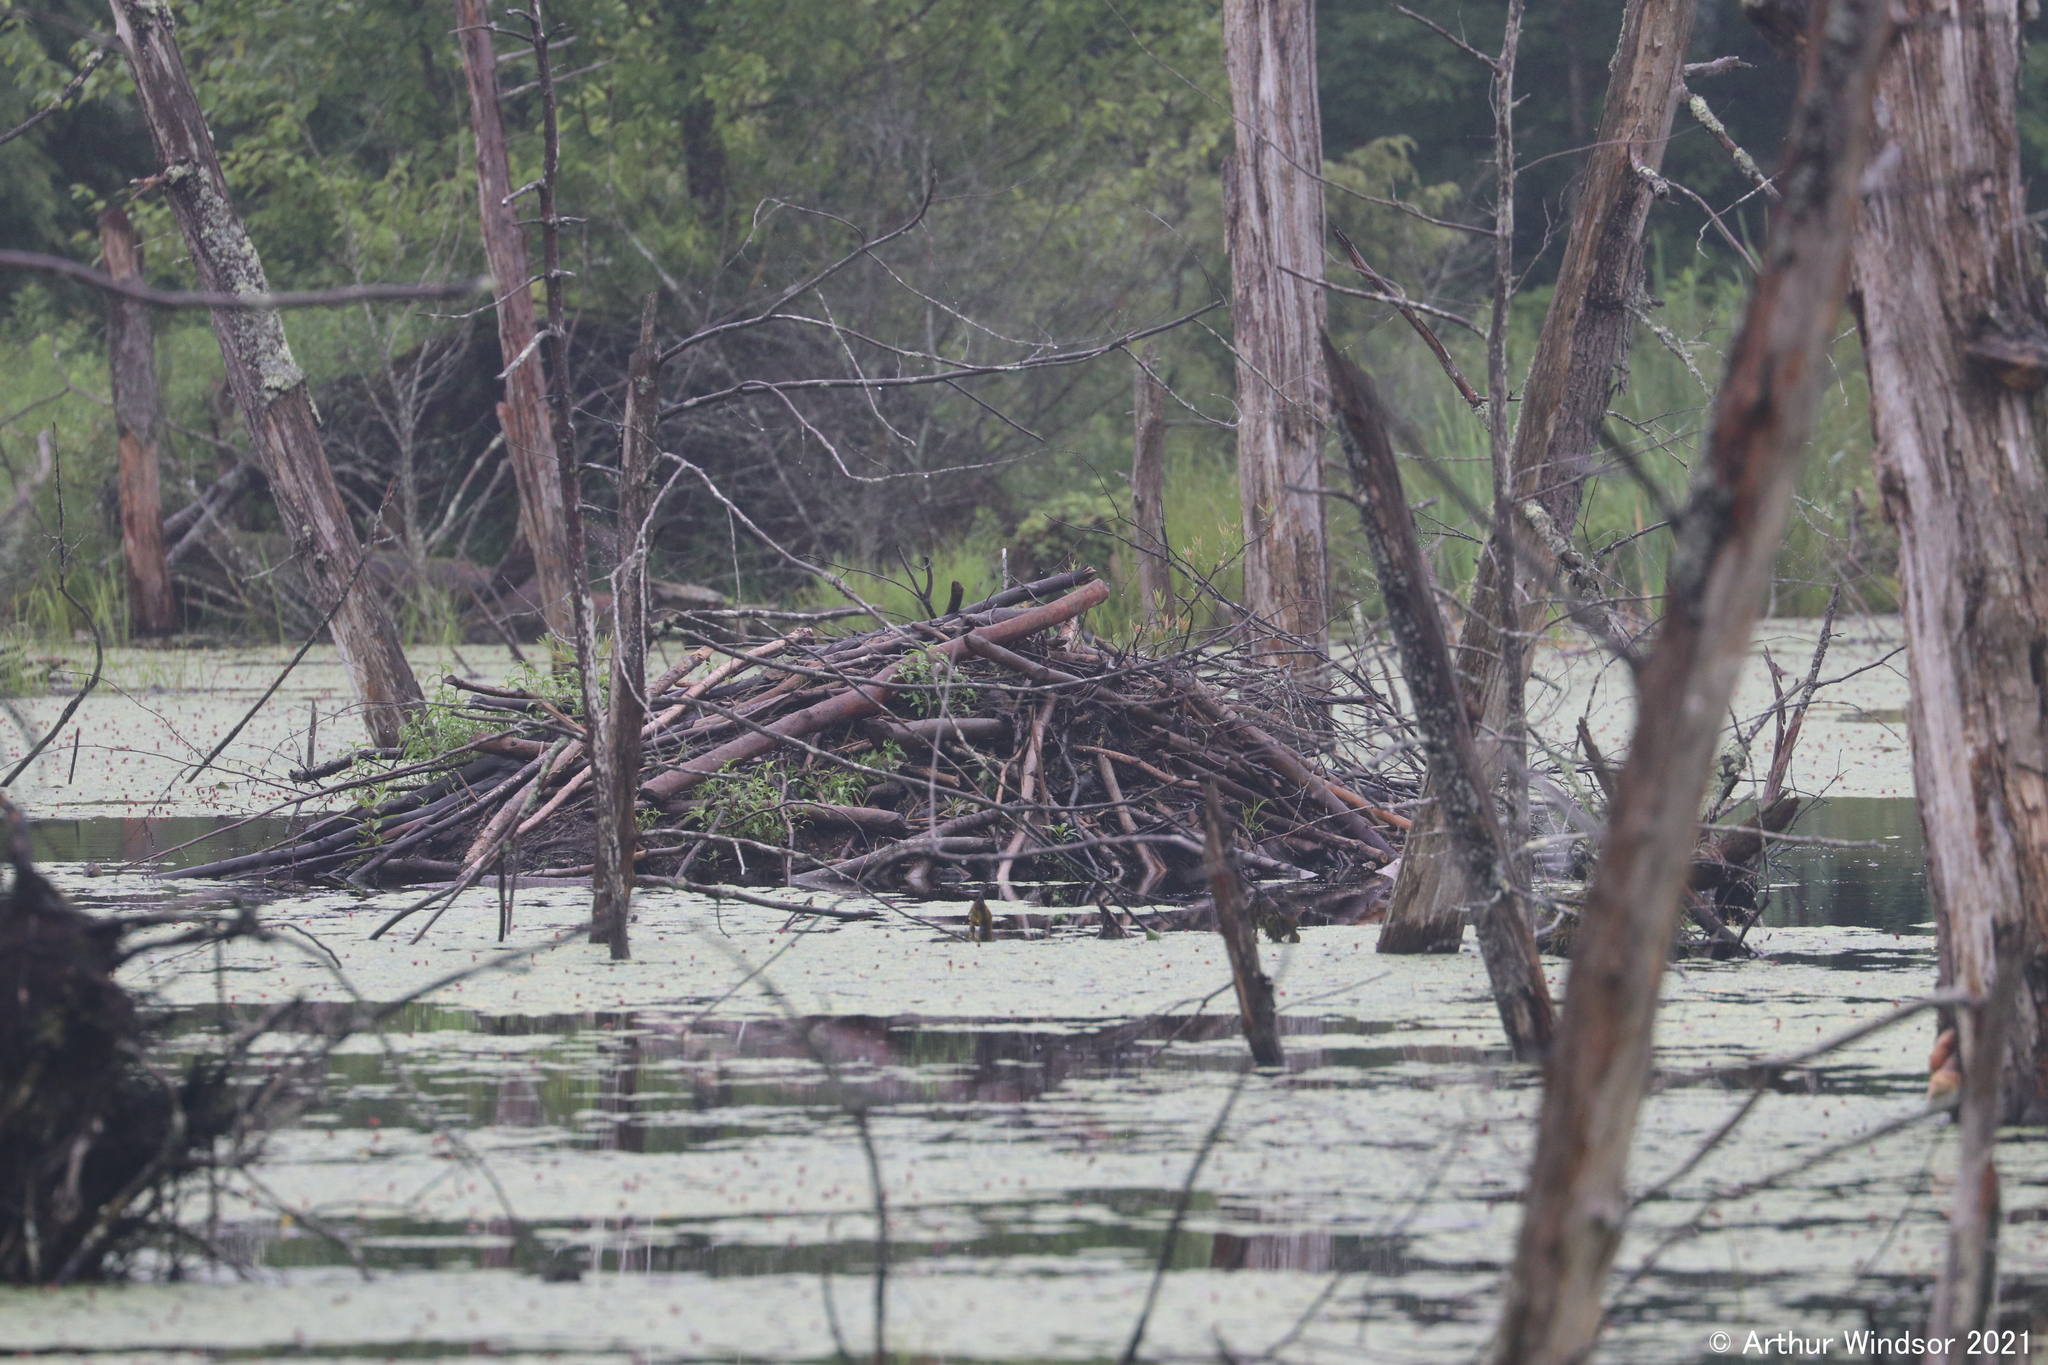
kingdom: Animalia
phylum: Chordata
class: Mammalia
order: Rodentia
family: Castoridae
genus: Castor
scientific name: Castor canadensis
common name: American beaver
